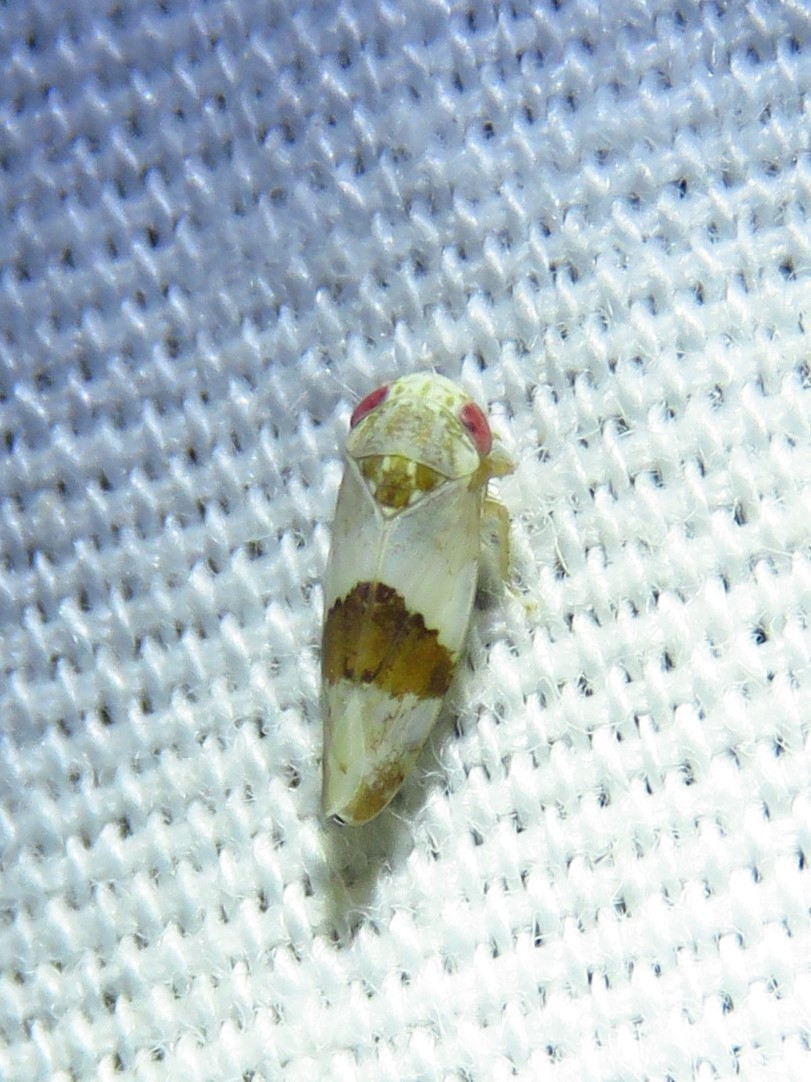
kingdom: Animalia
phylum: Arthropoda
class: Insecta
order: Hemiptera
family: Cicadellidae
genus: Norvellina
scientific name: Norvellina seminuda
